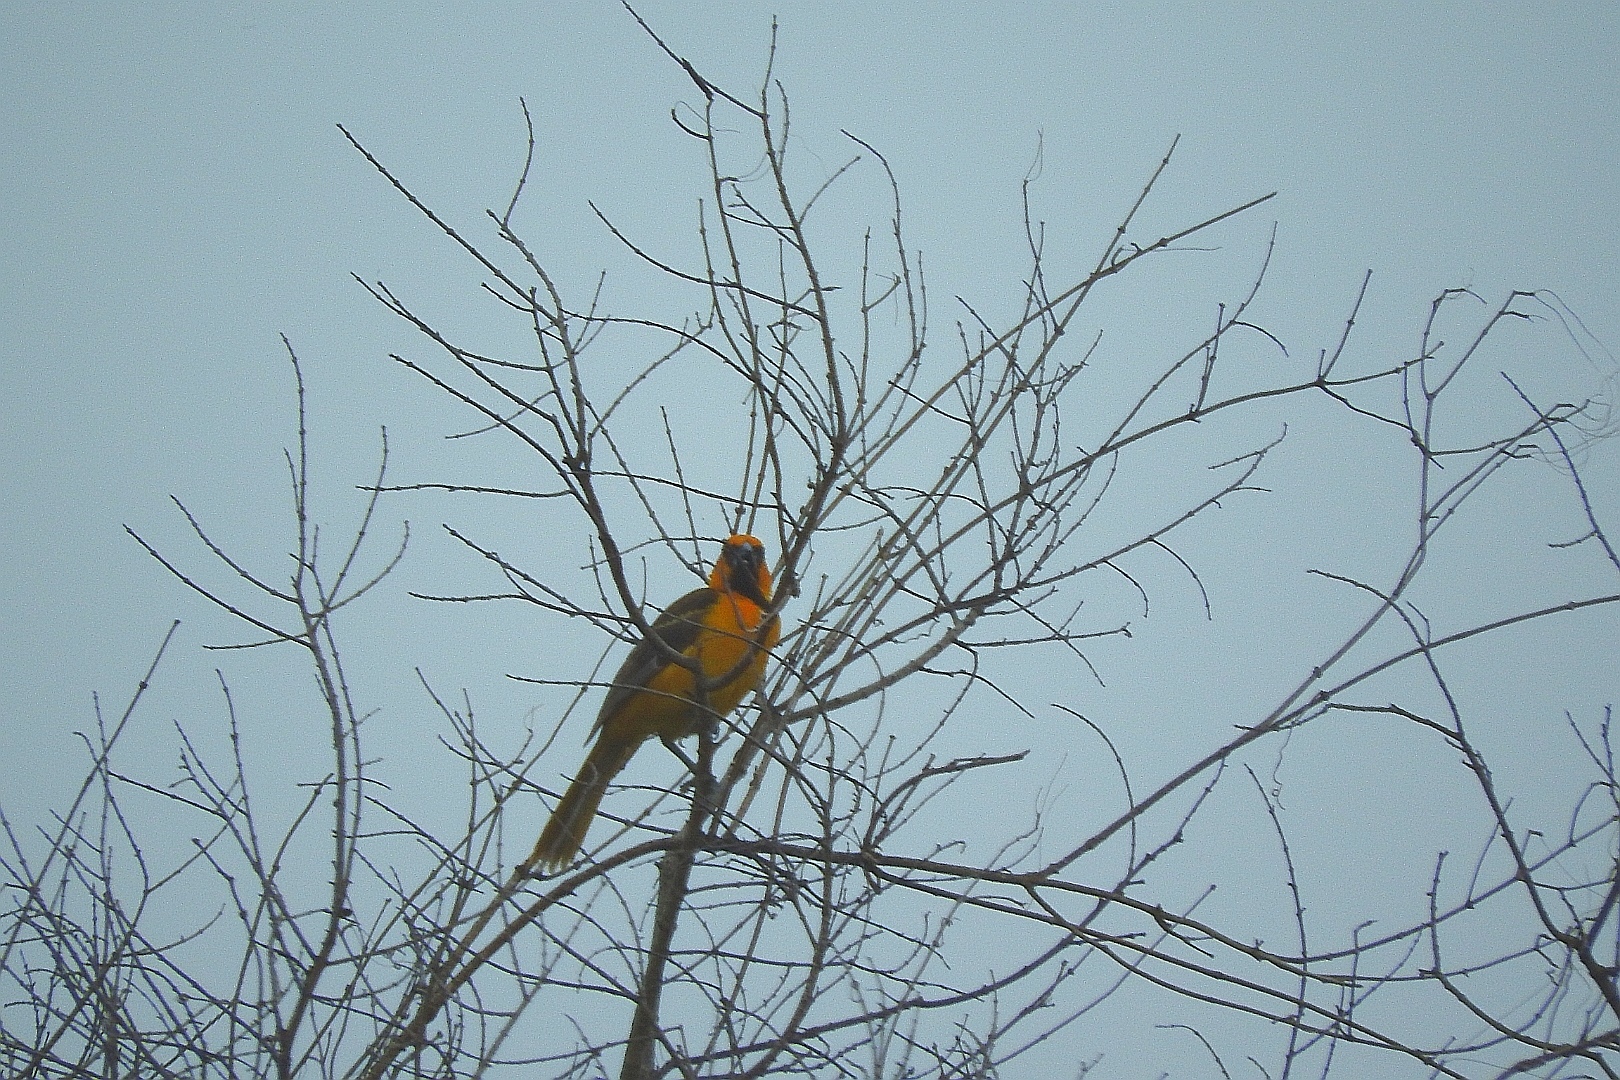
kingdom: Animalia
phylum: Chordata
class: Aves
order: Passeriformes
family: Icteridae
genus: Icterus
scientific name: Icterus gularis
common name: Altamira oriole
